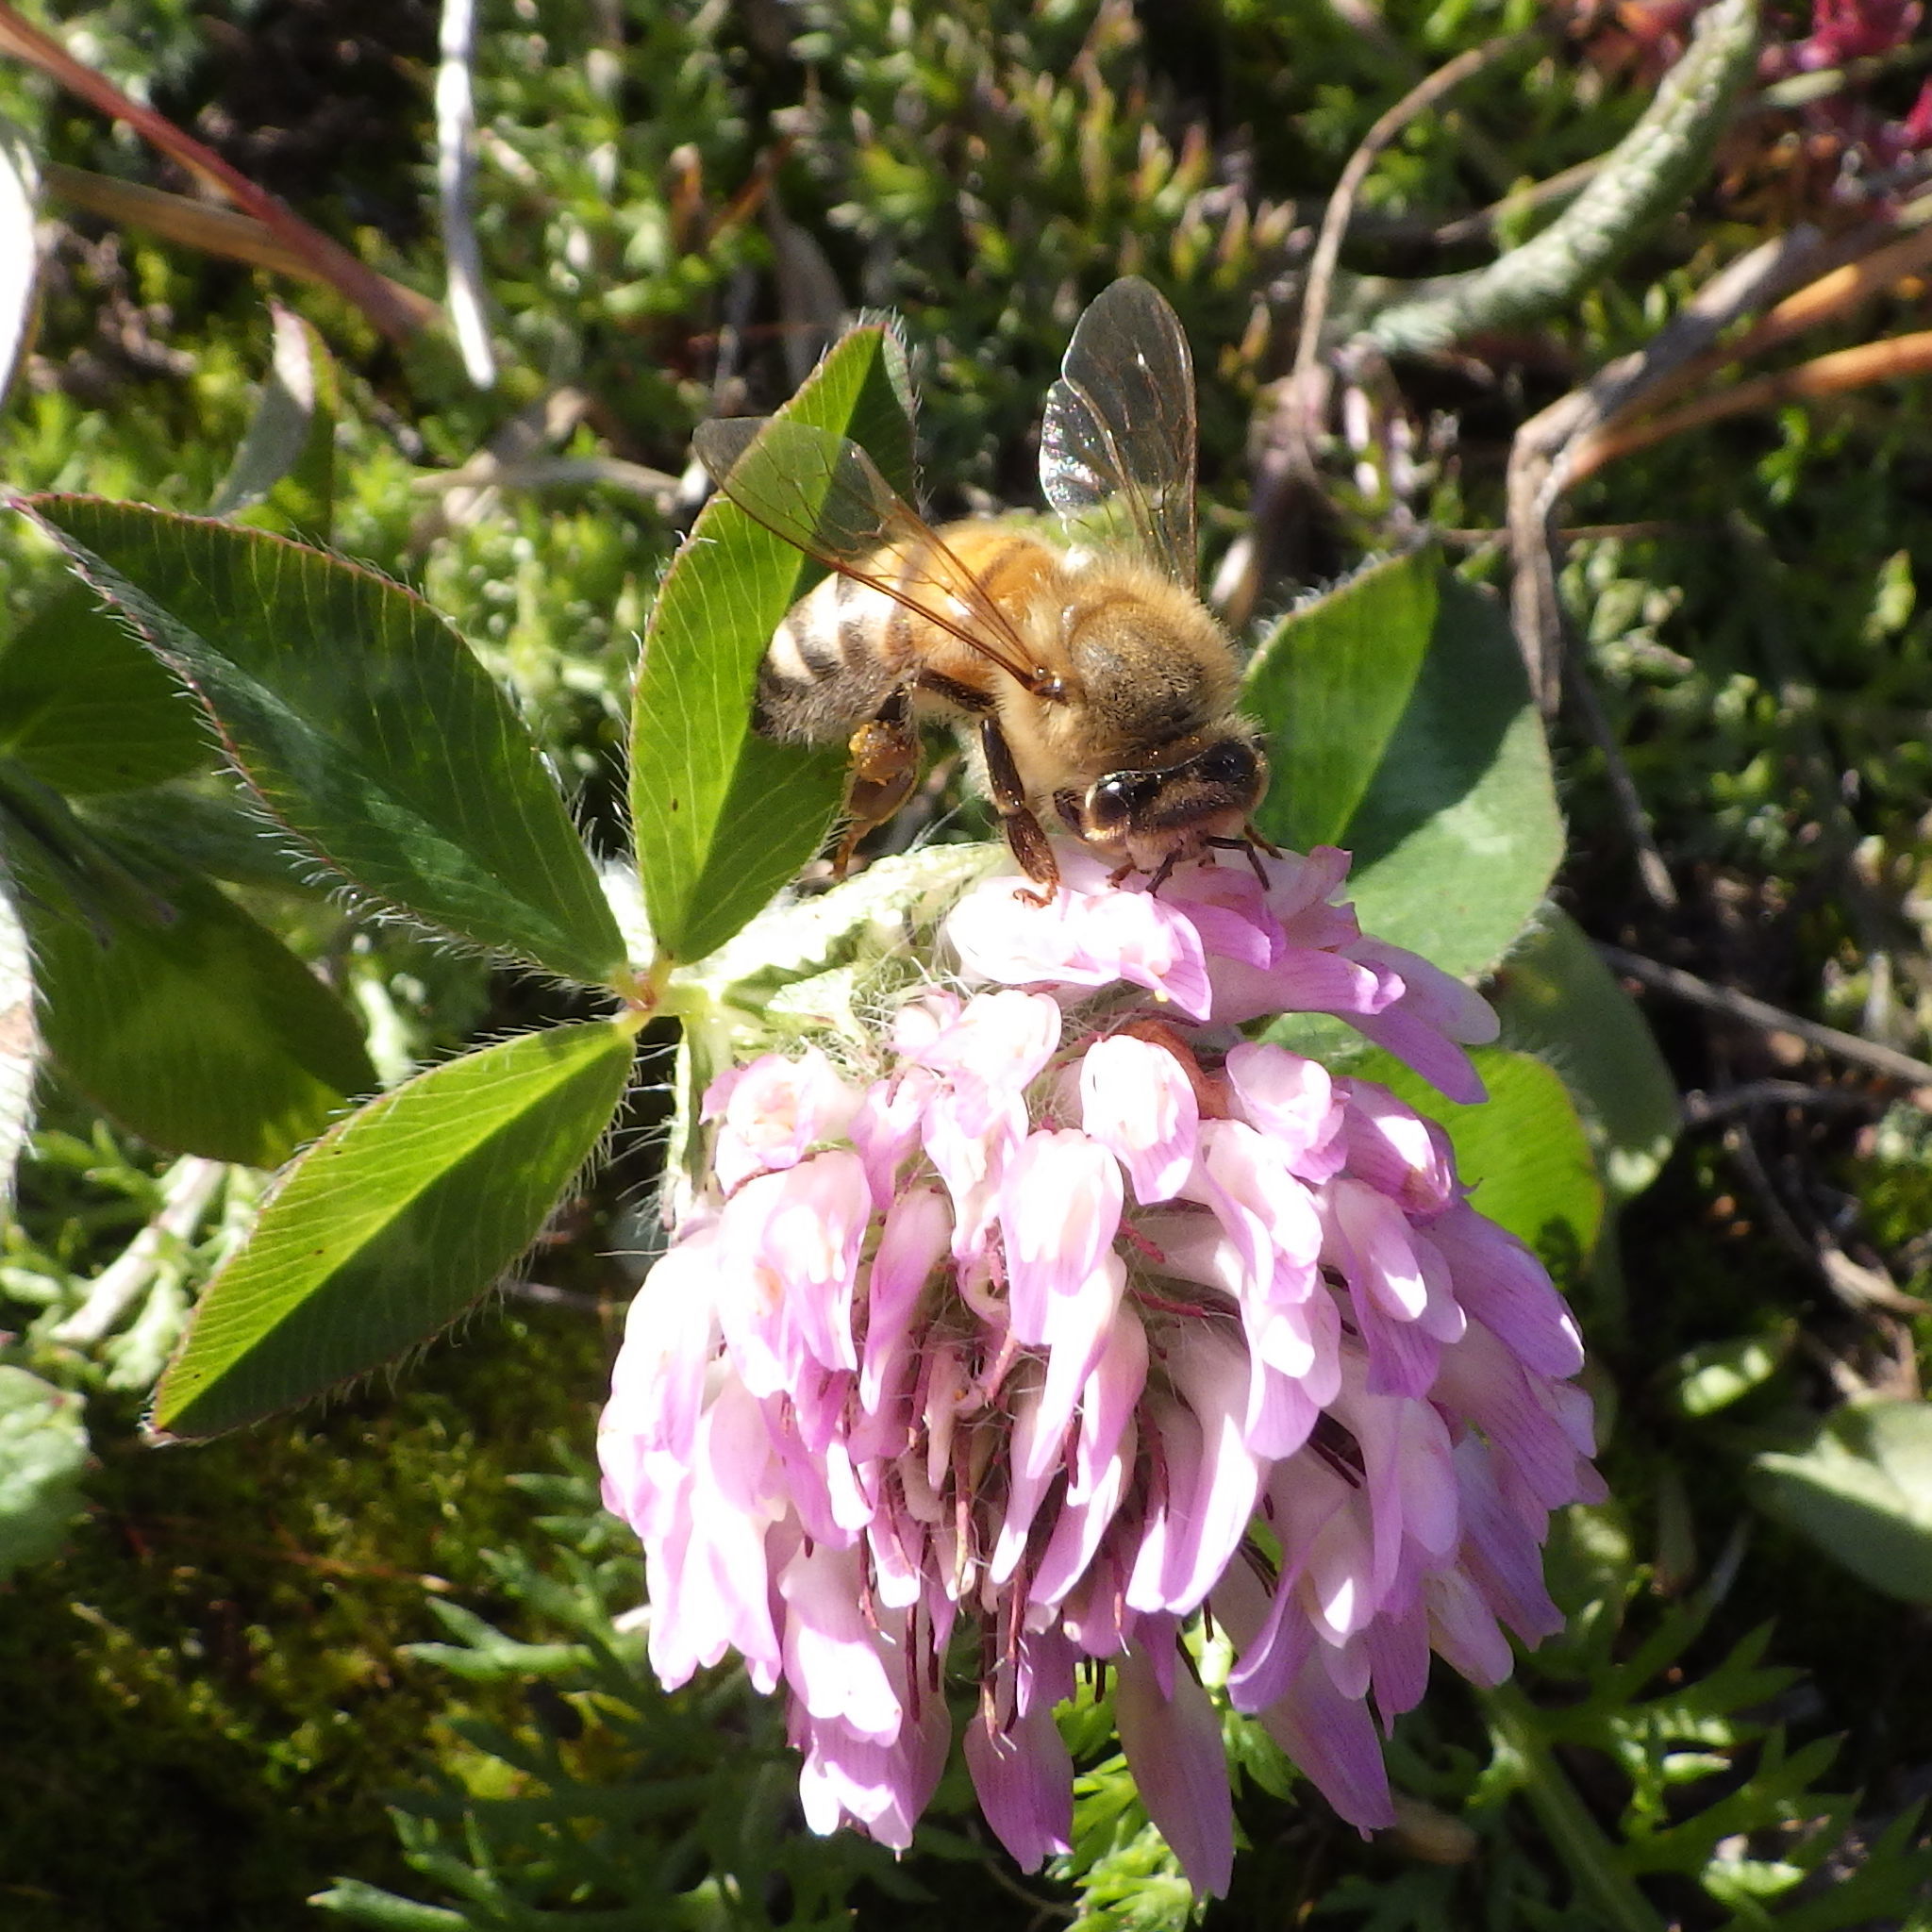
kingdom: Animalia
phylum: Arthropoda
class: Insecta
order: Hymenoptera
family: Apidae
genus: Apis
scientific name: Apis mellifera
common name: Honey bee
